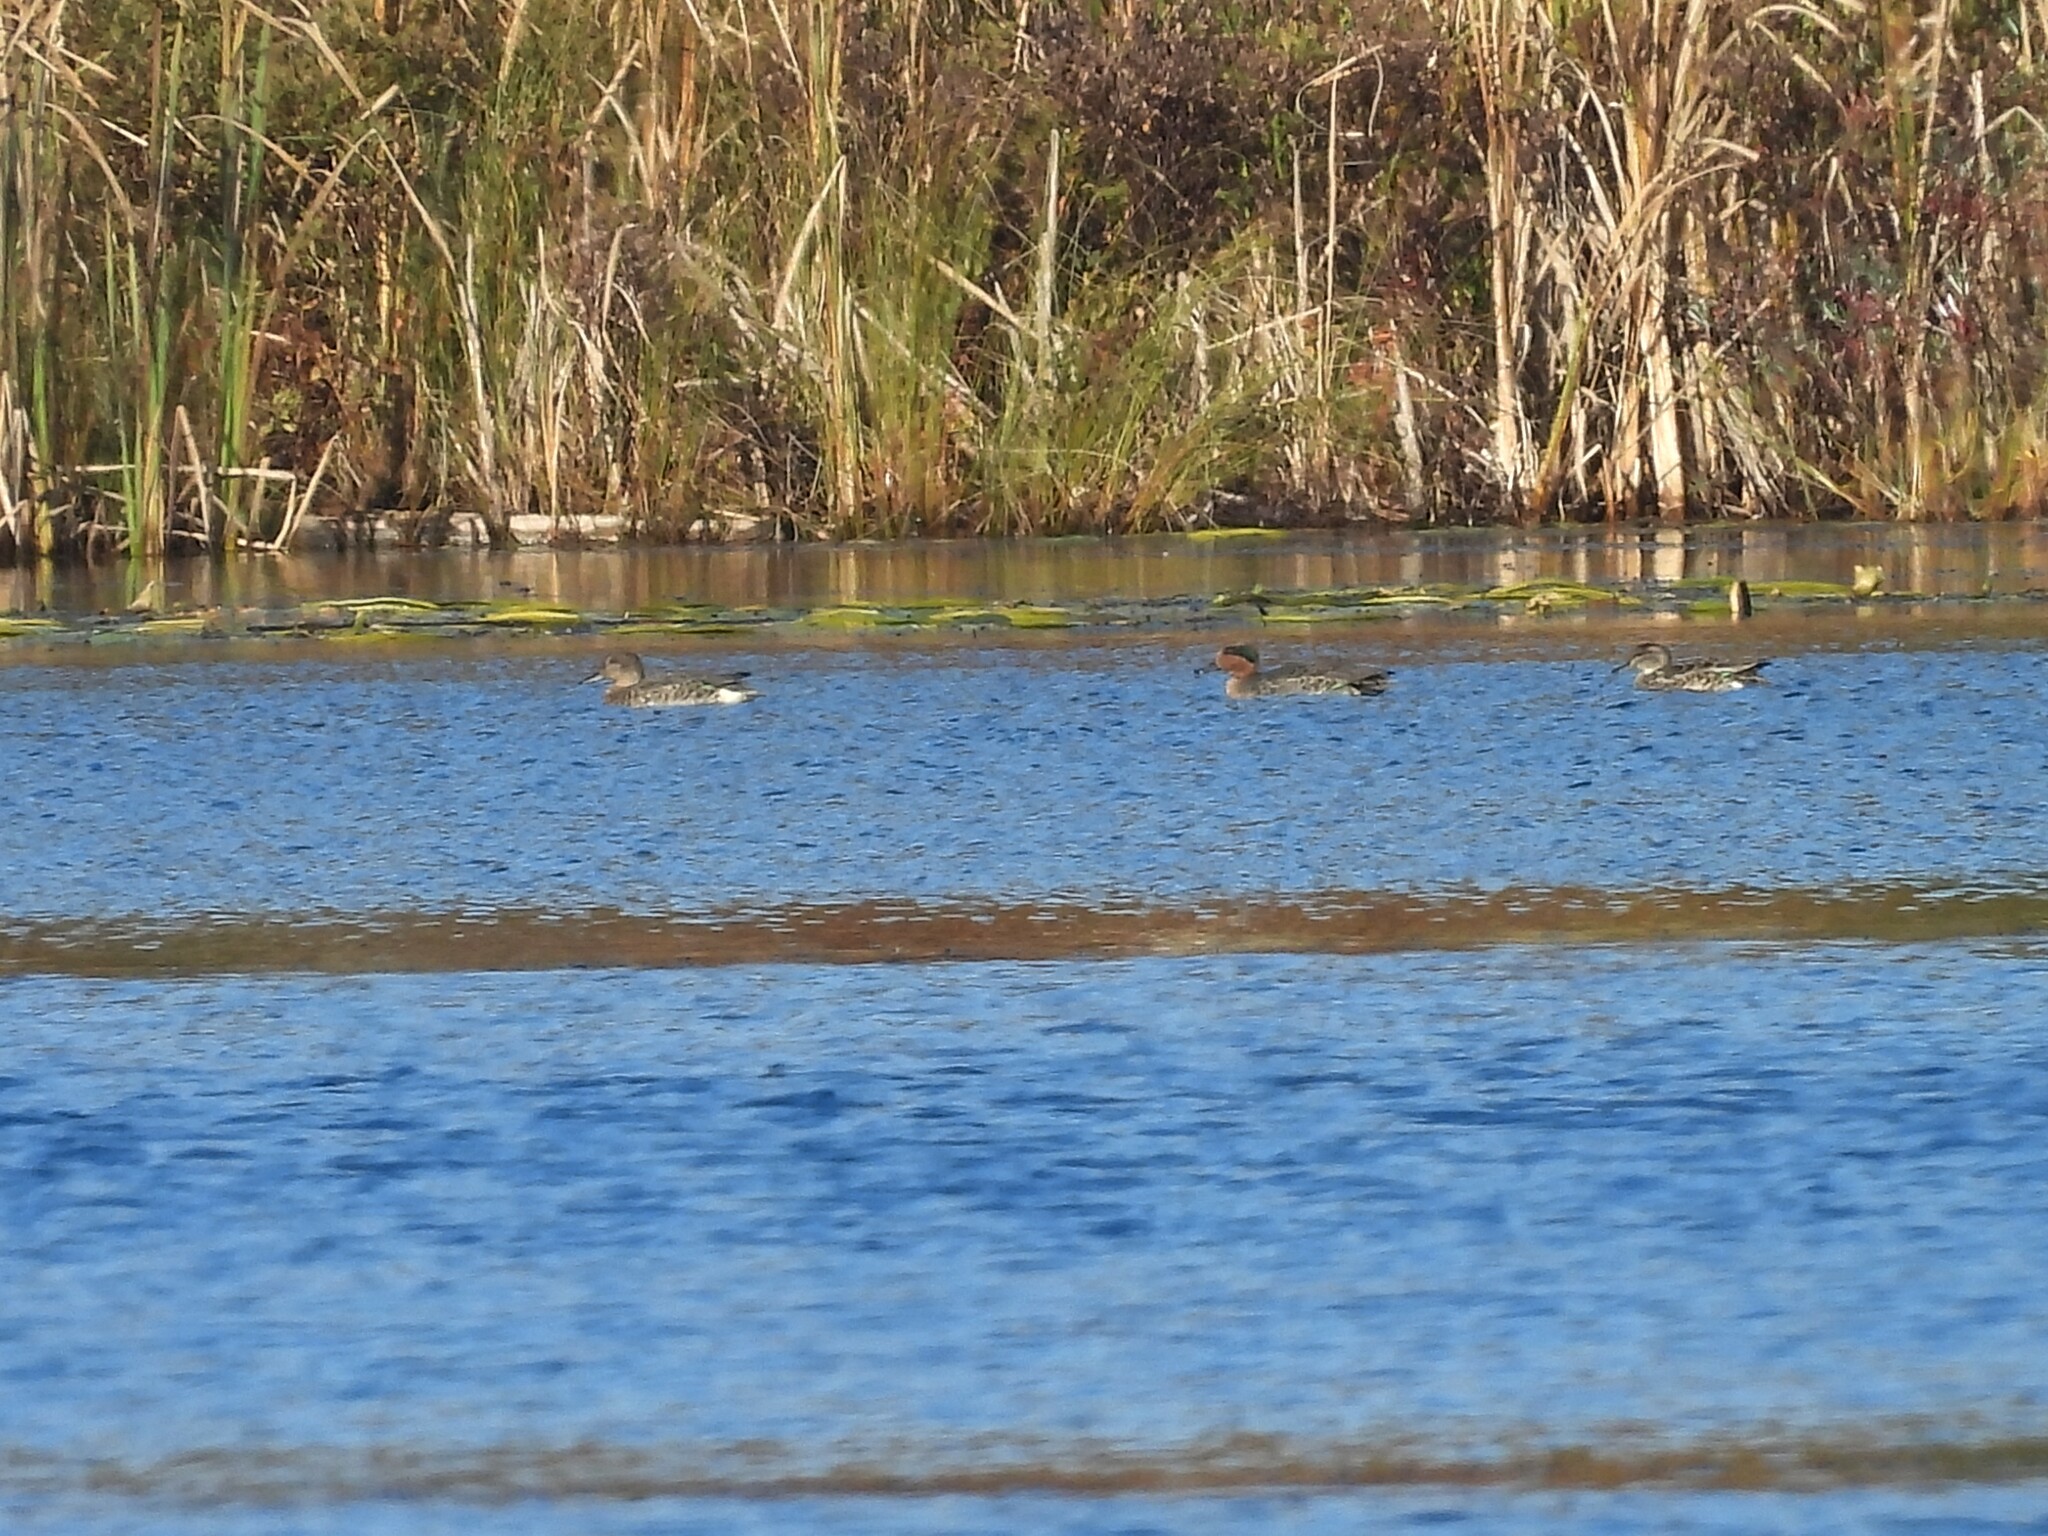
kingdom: Animalia
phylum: Chordata
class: Aves
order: Anseriformes
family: Anatidae
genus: Anas
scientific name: Anas crecca
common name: Eurasian teal
